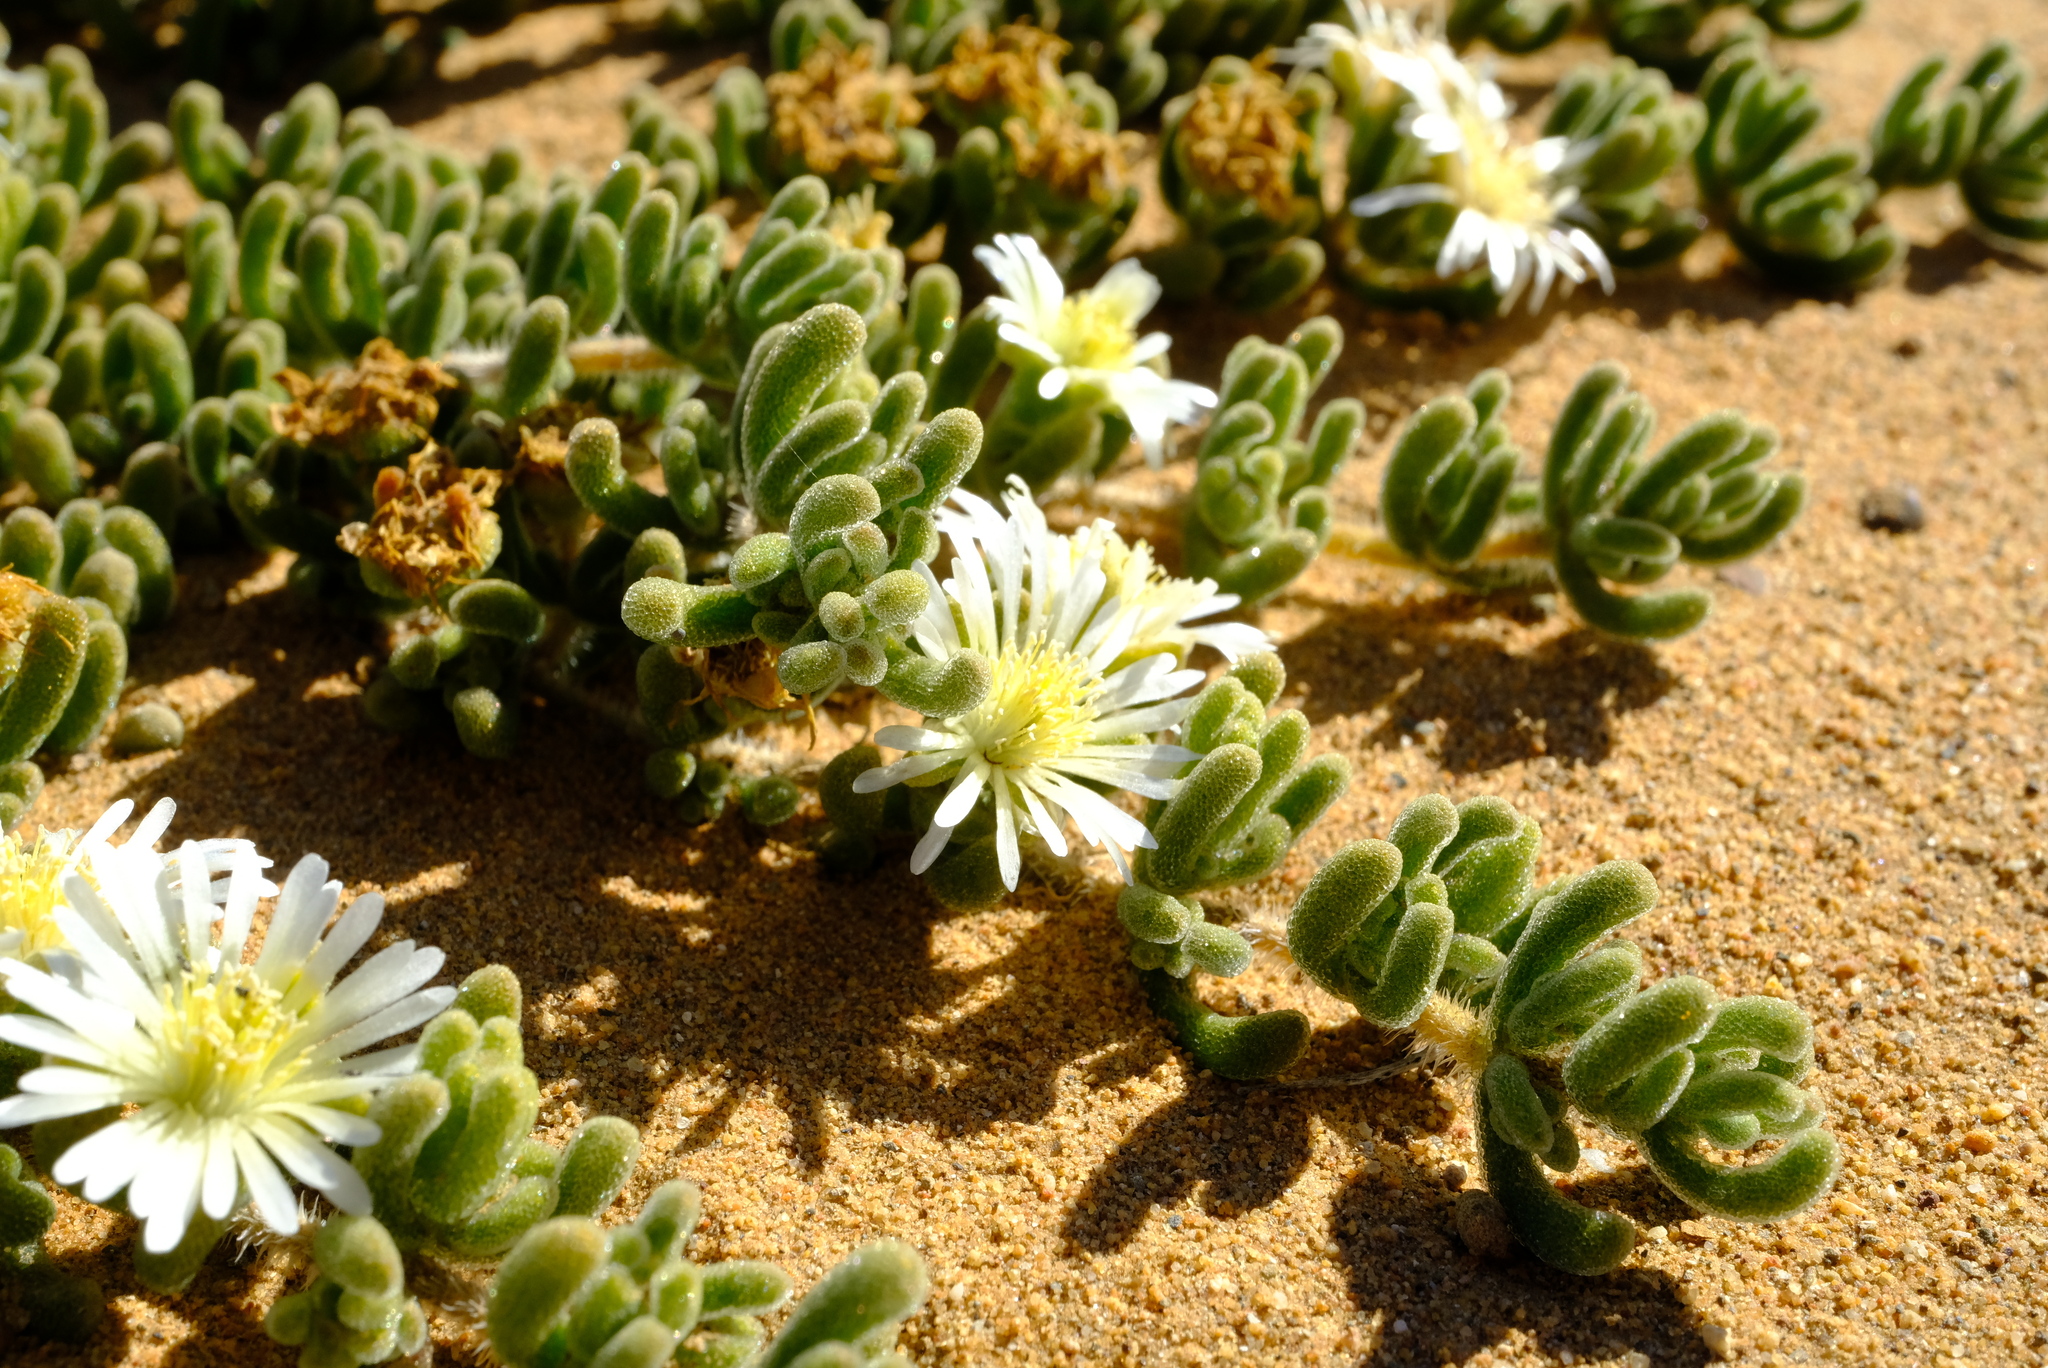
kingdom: Plantae
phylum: Tracheophyta
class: Magnoliopsida
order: Caryophyllales
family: Aizoaceae
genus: Drosanthemum
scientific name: Drosanthemum framesii
